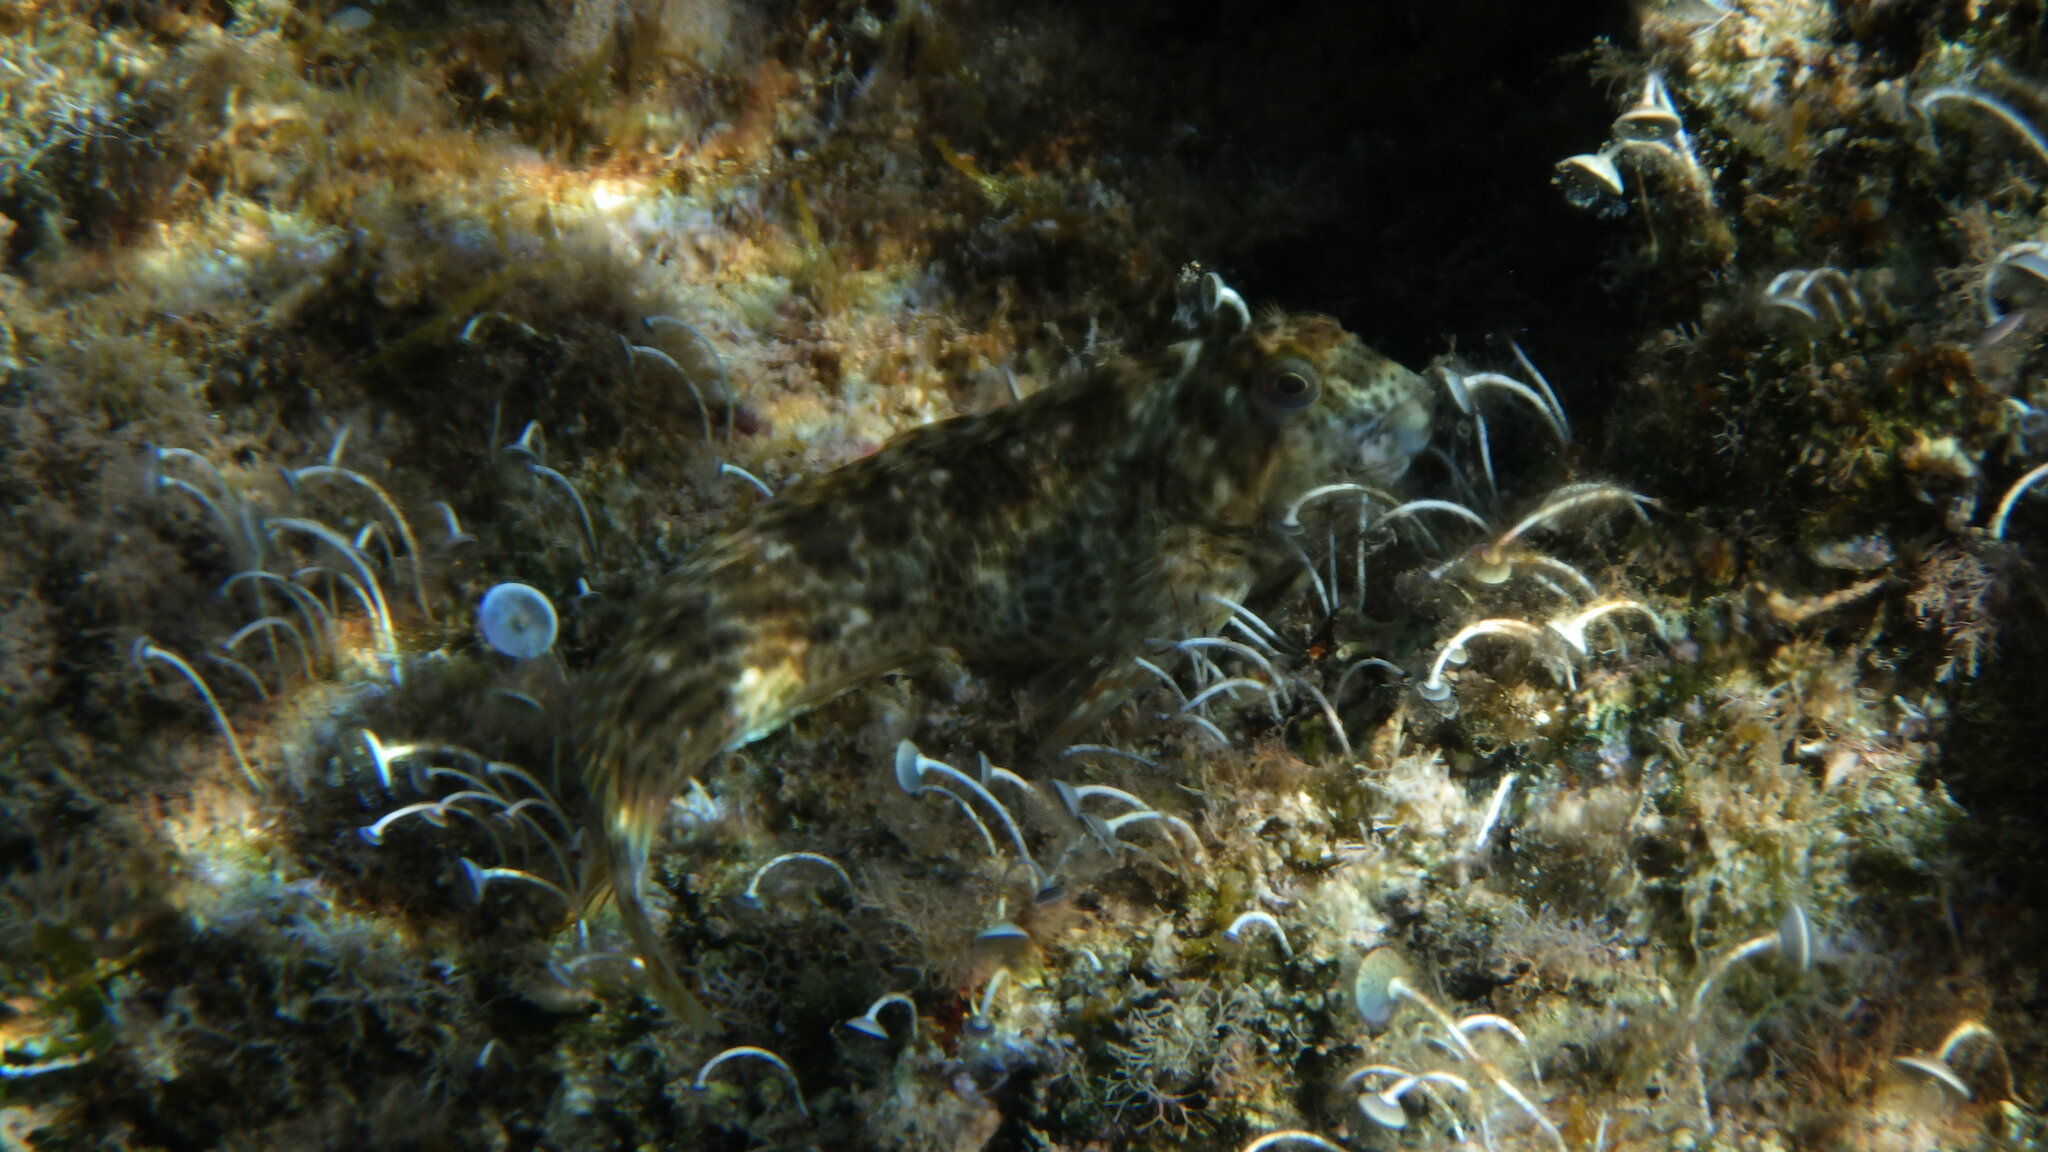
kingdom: Animalia
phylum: Chordata
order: Perciformes
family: Blenniidae
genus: Parablennius
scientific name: Parablennius sanguinolentus
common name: Black sea blenny
